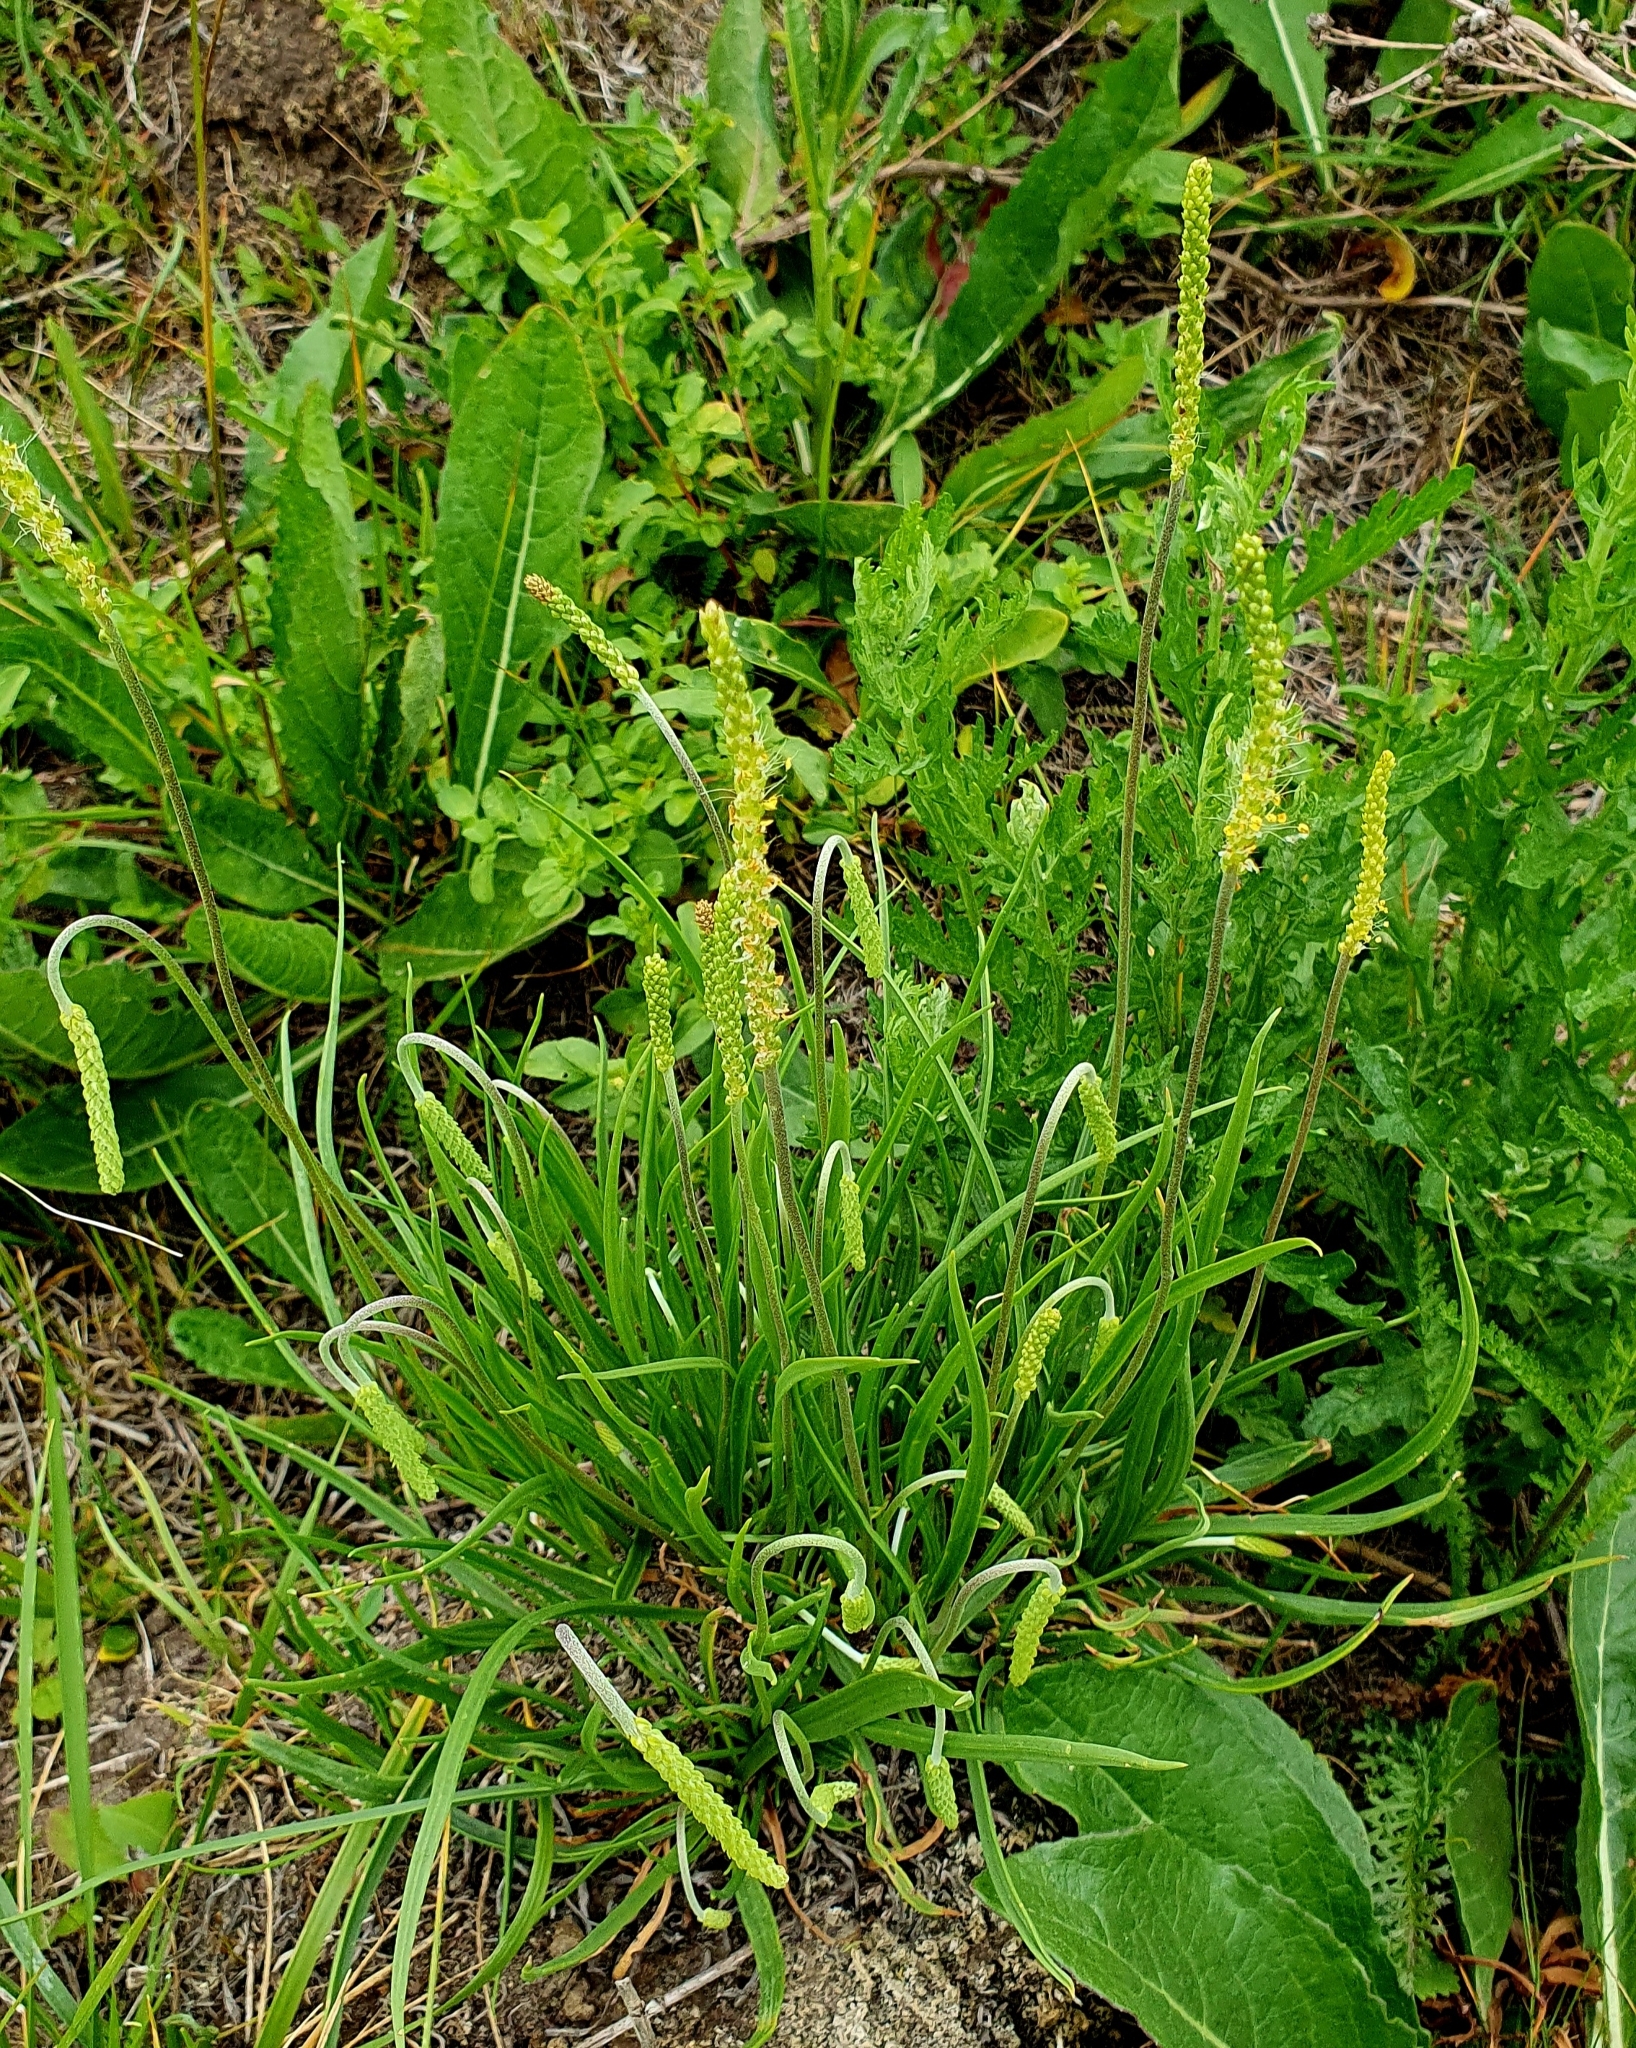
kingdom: Plantae
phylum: Tracheophyta
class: Magnoliopsida
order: Lamiales
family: Plantaginaceae
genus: Plantago
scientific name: Plantago salsa
